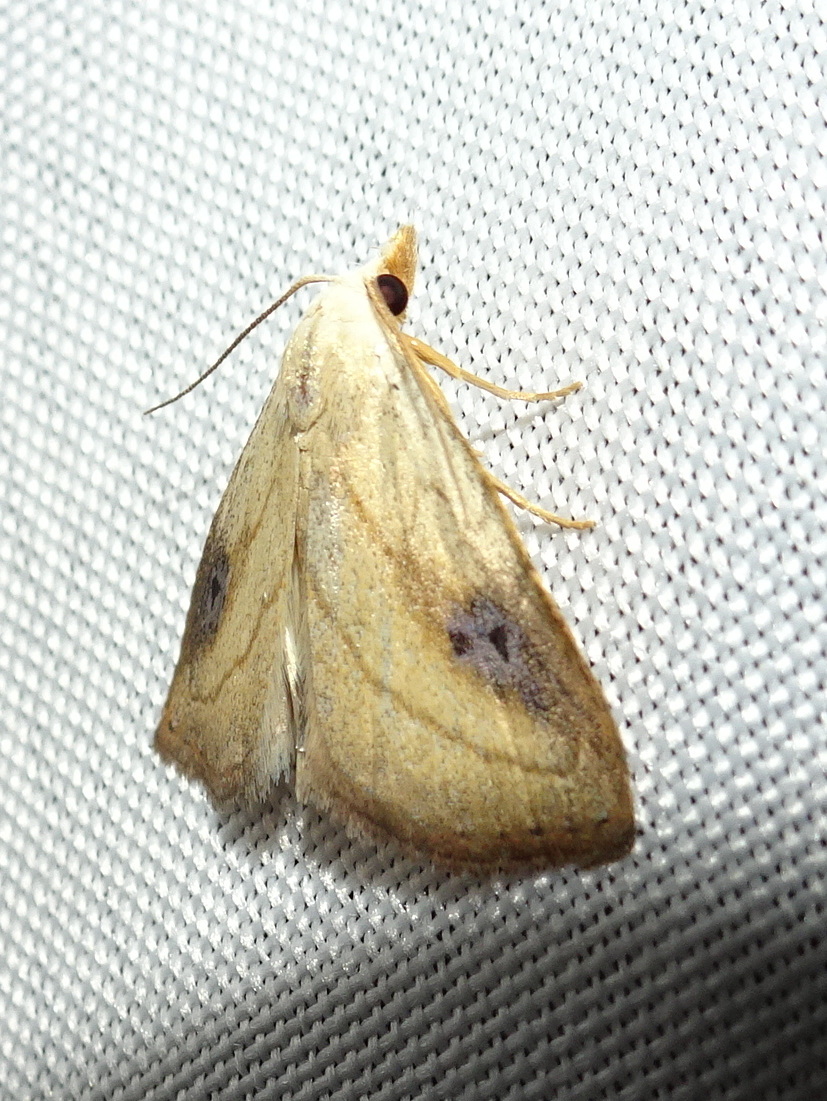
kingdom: Animalia
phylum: Arthropoda
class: Insecta
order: Lepidoptera
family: Erebidae
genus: Rivula
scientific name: Rivula propinqualis
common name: Spotted grass moth
